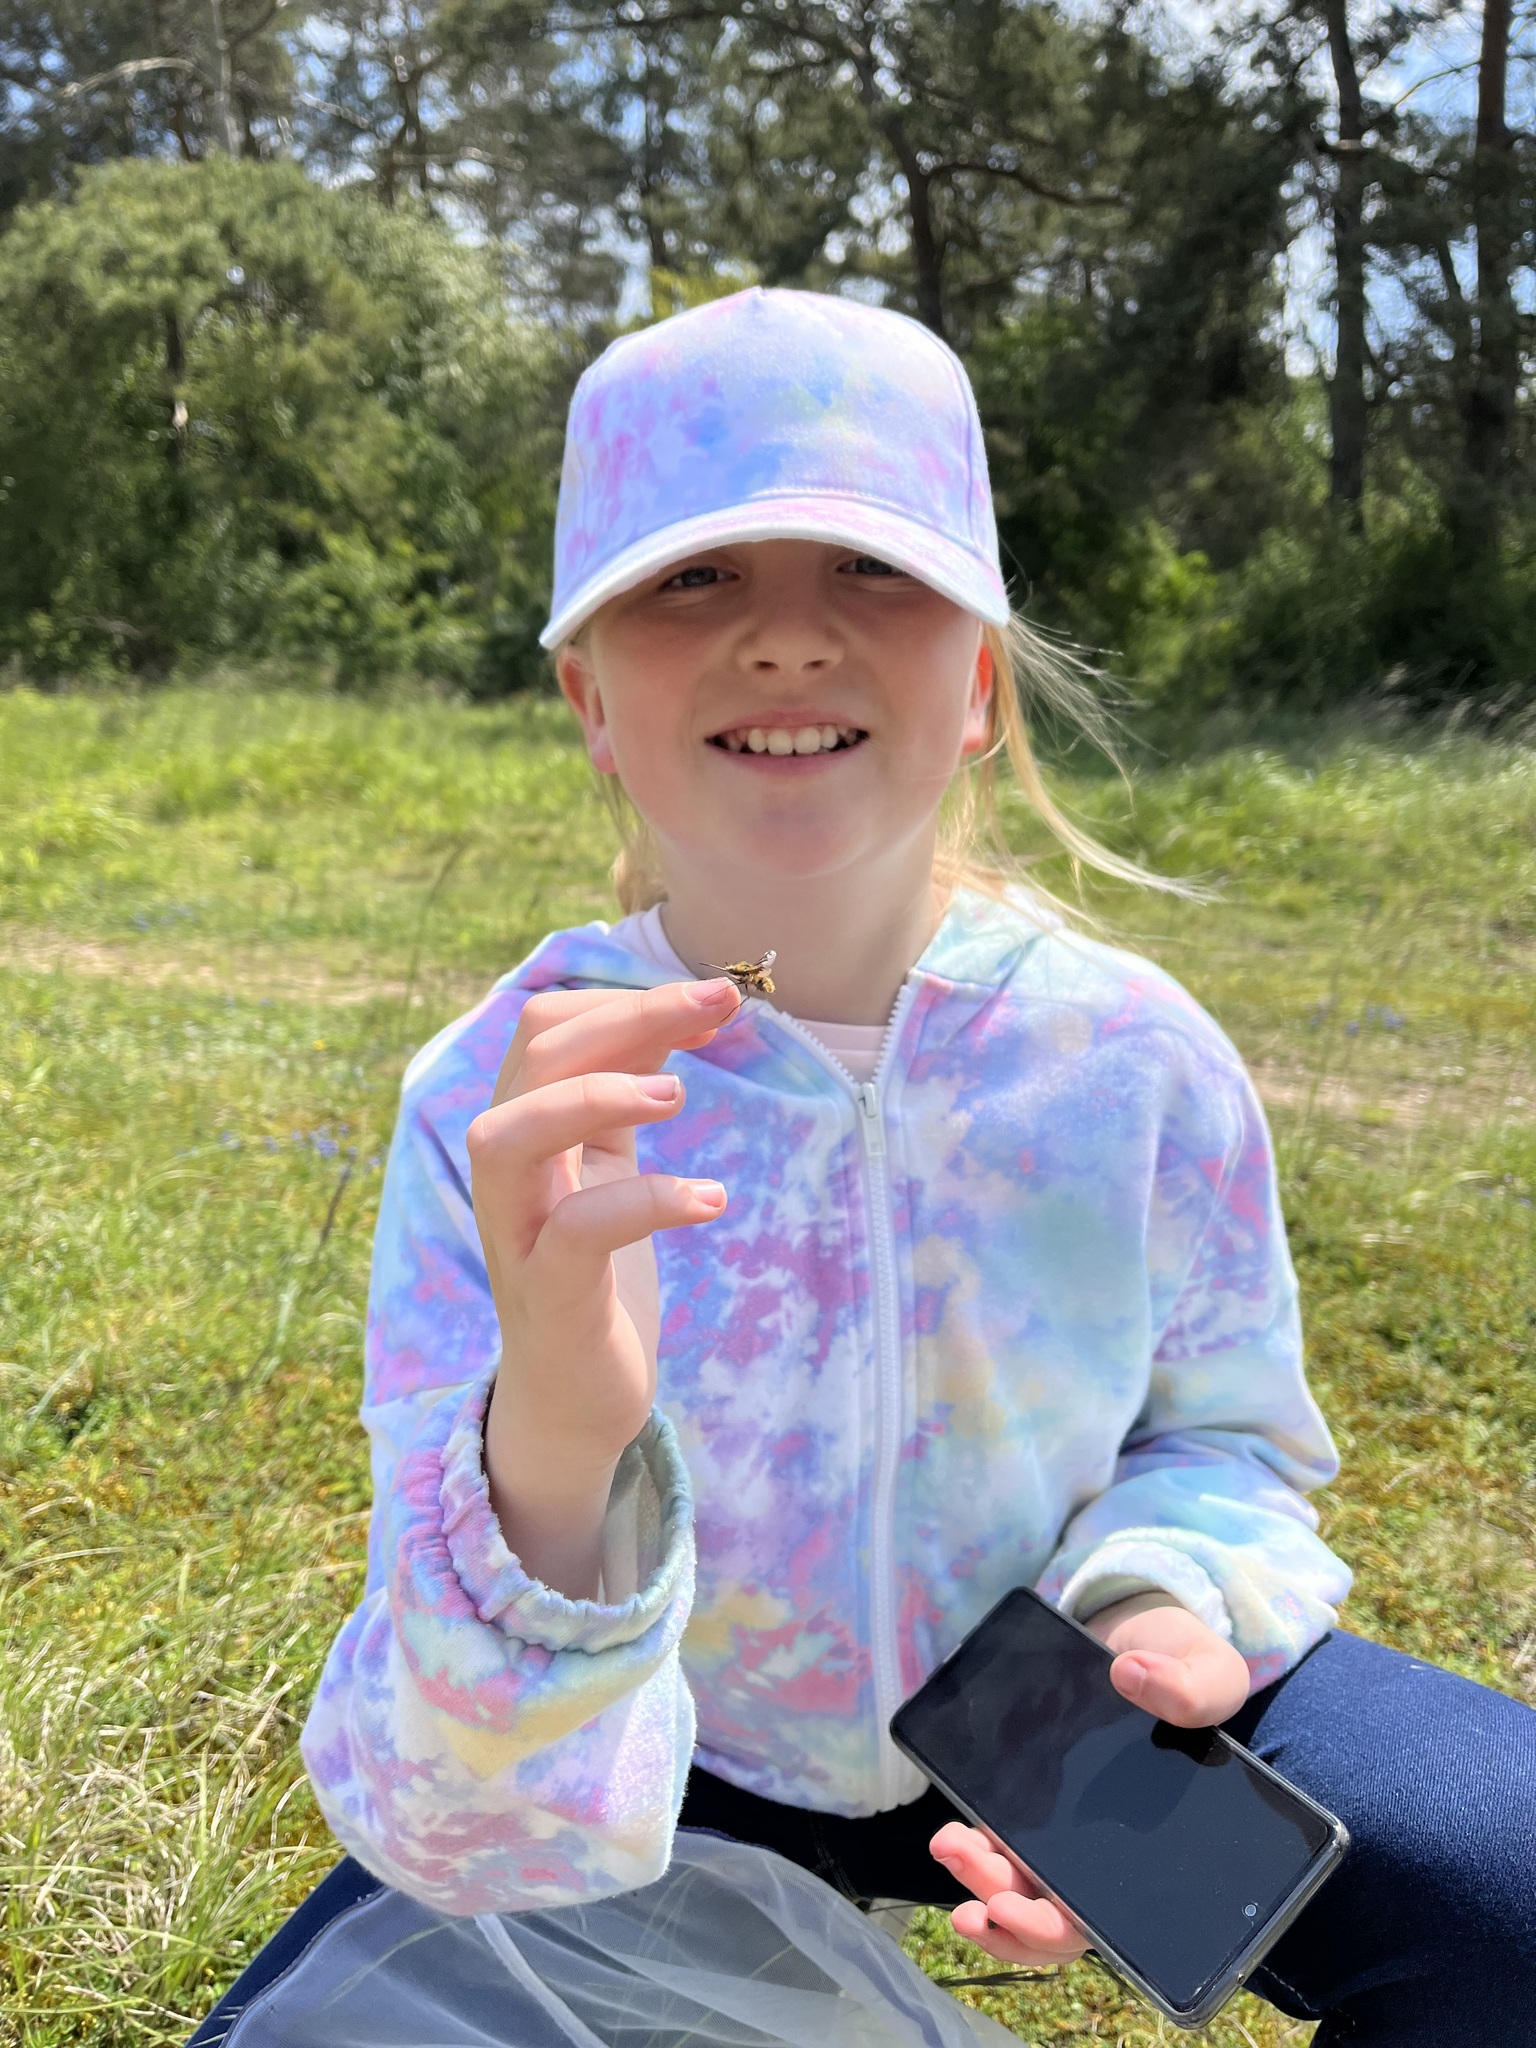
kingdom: Animalia
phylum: Arthropoda
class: Insecta
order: Diptera
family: Bombyliidae
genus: Bombylius
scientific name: Bombylius major
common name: Bee fly
